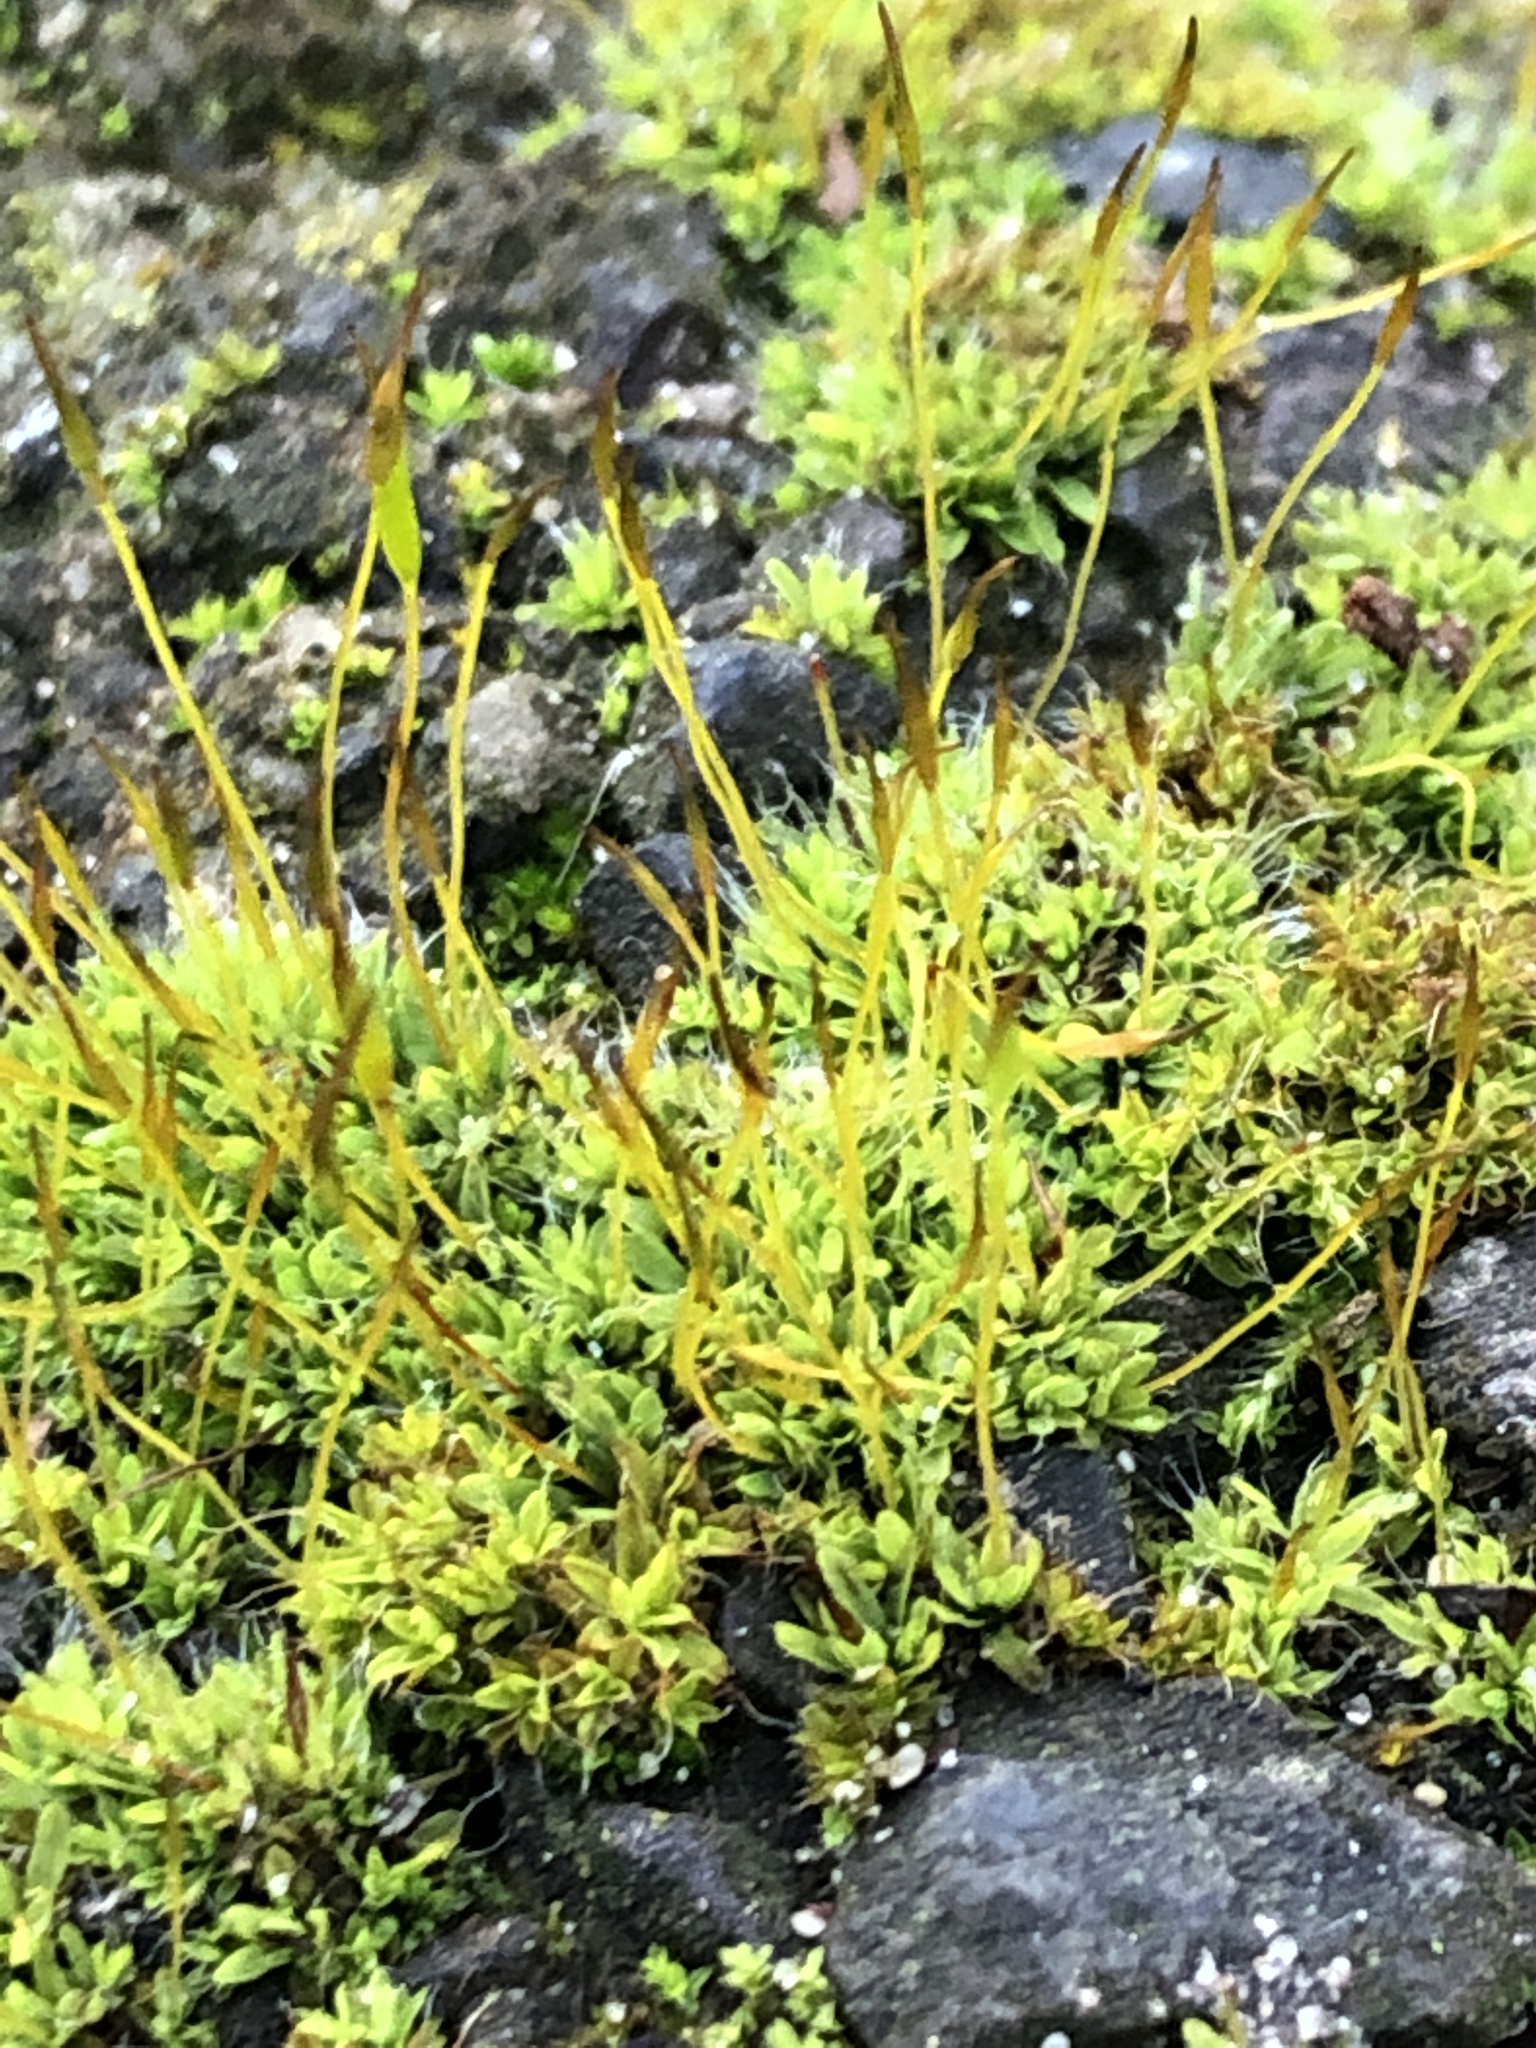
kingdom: Plantae
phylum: Bryophyta
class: Bryopsida
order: Pottiales
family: Pottiaceae
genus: Tortula
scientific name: Tortula muralis
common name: Wall screw-moss
